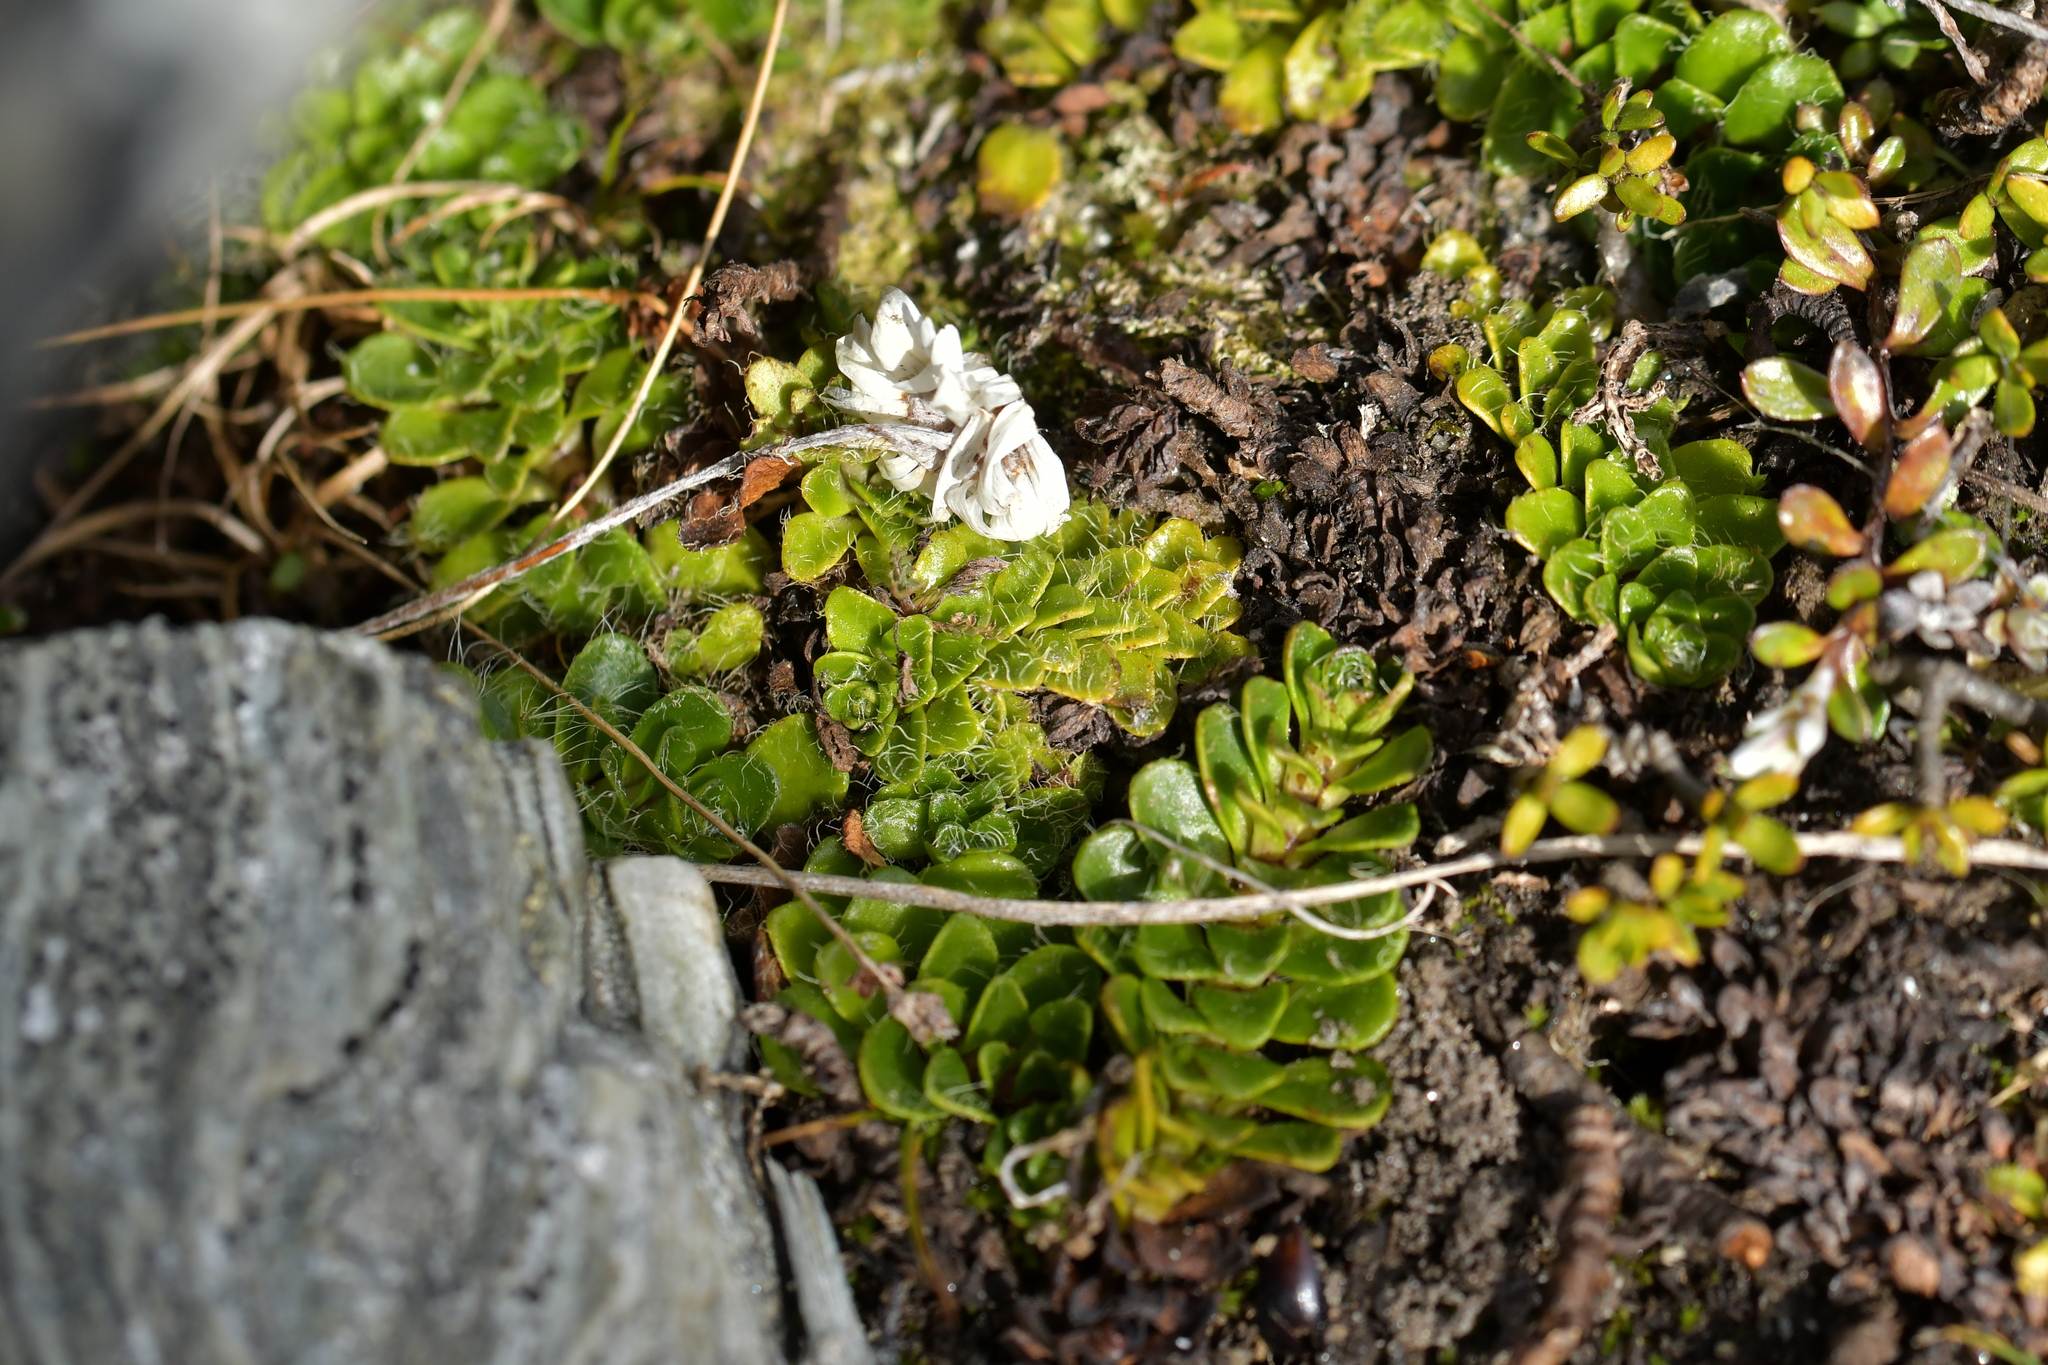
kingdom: Plantae
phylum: Tracheophyta
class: Magnoliopsida
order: Lamiales
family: Plantaginaceae
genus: Ourisia
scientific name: Ourisia glandulosa
